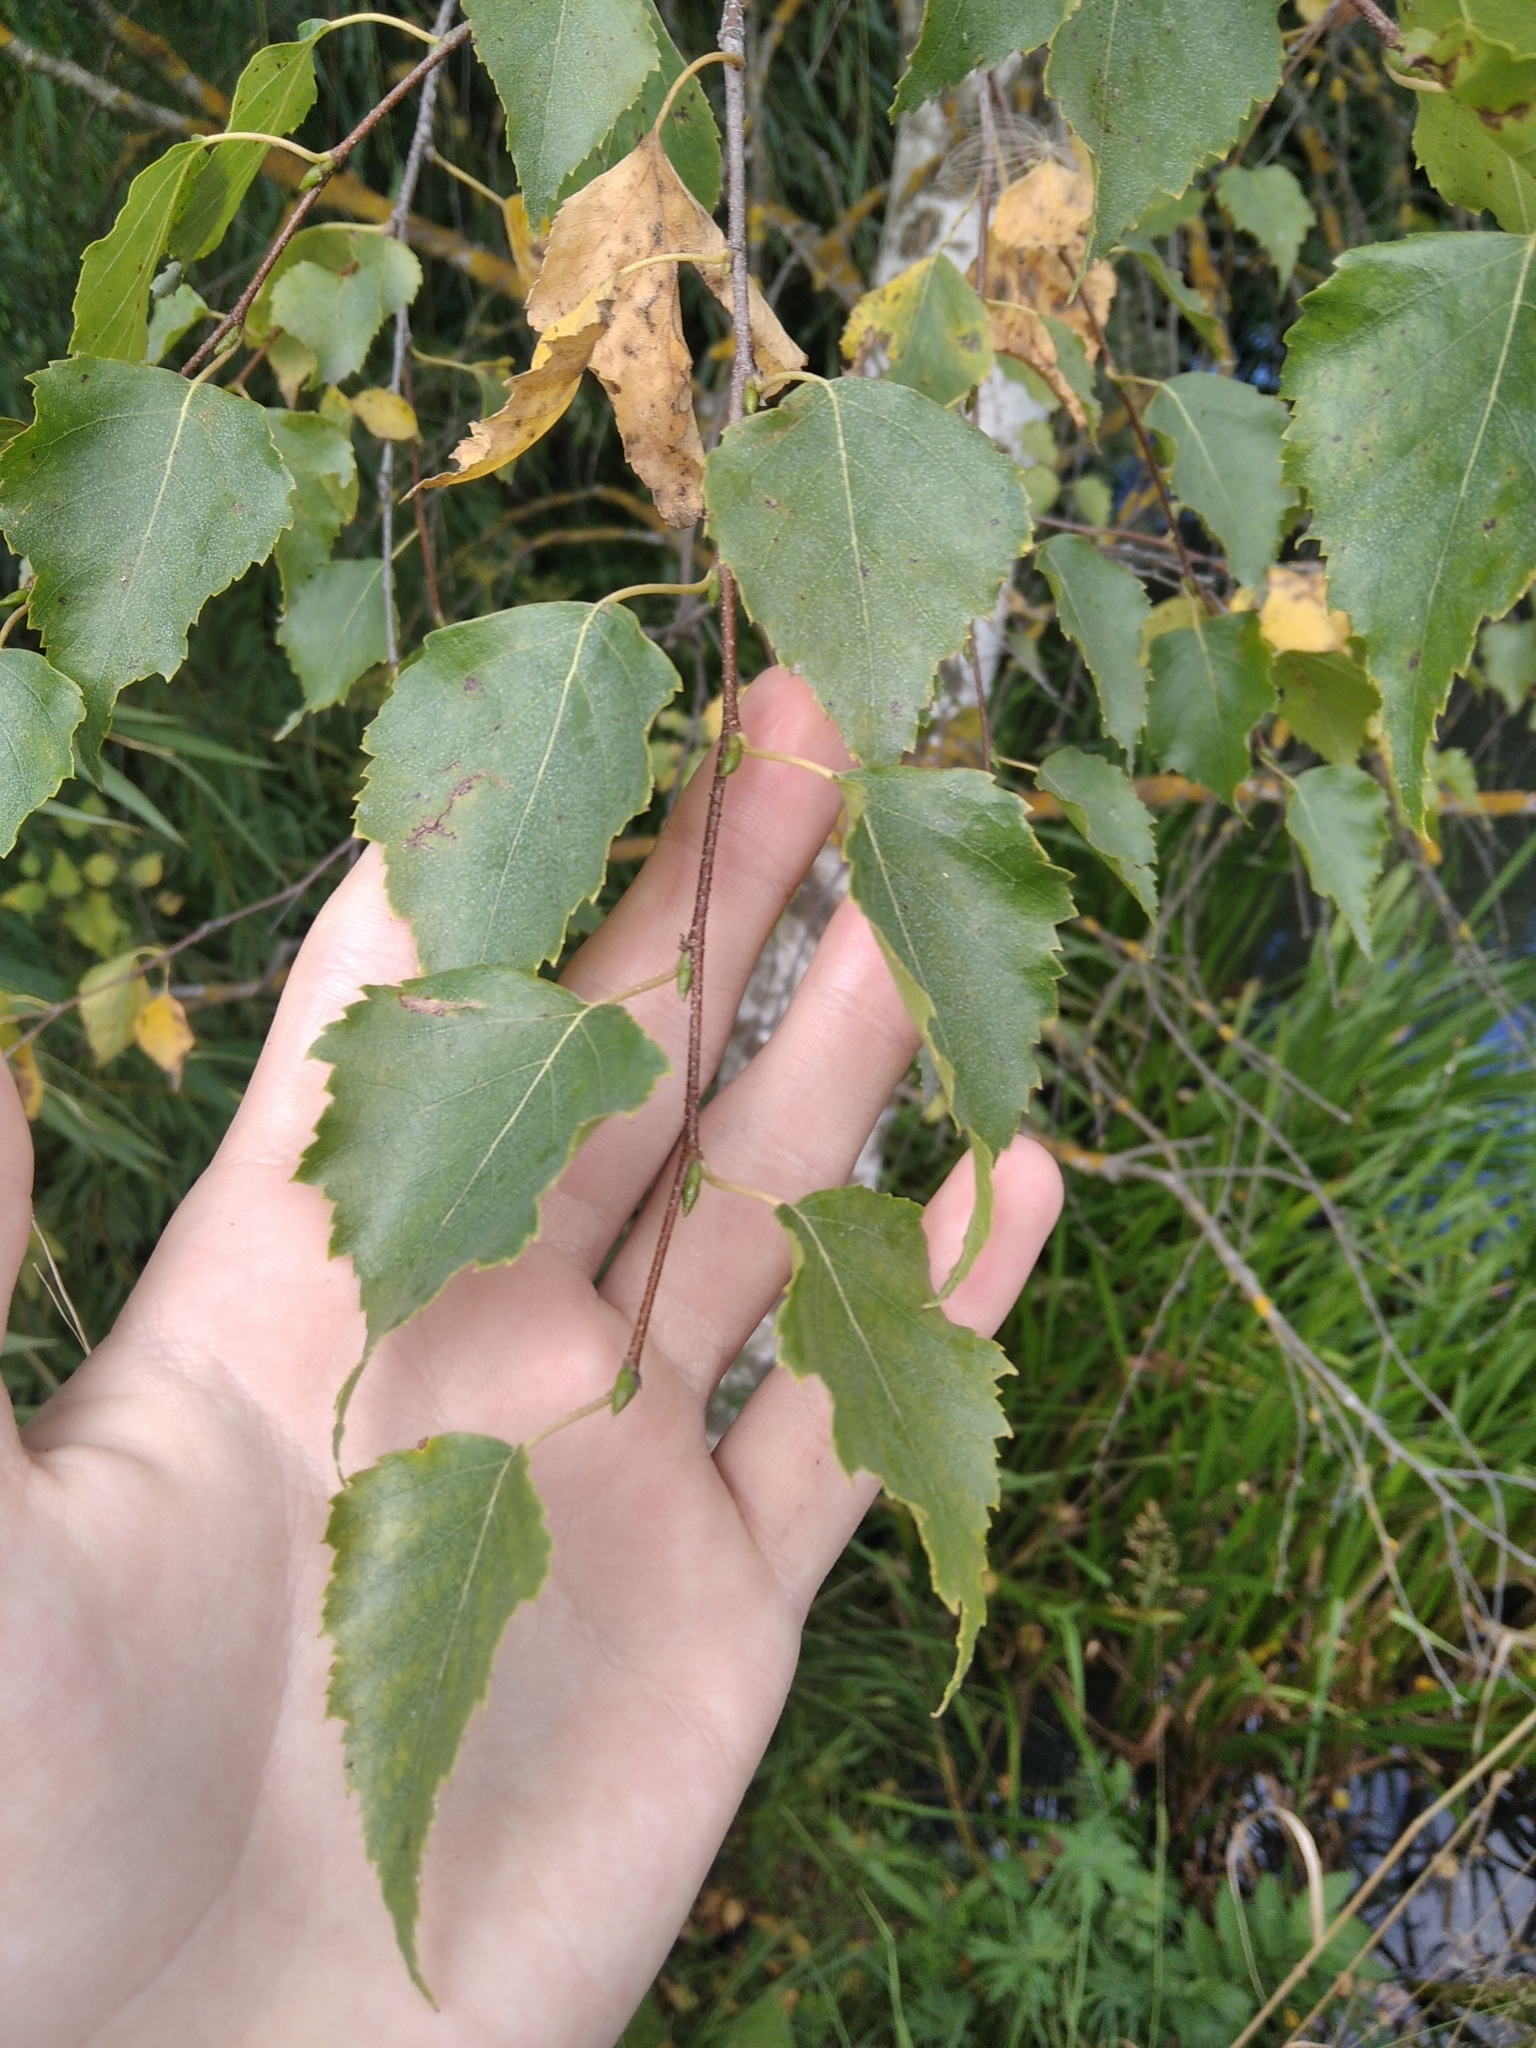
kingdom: Plantae
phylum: Tracheophyta
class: Magnoliopsida
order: Fagales
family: Betulaceae
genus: Betula
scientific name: Betula pendula
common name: Silver birch
